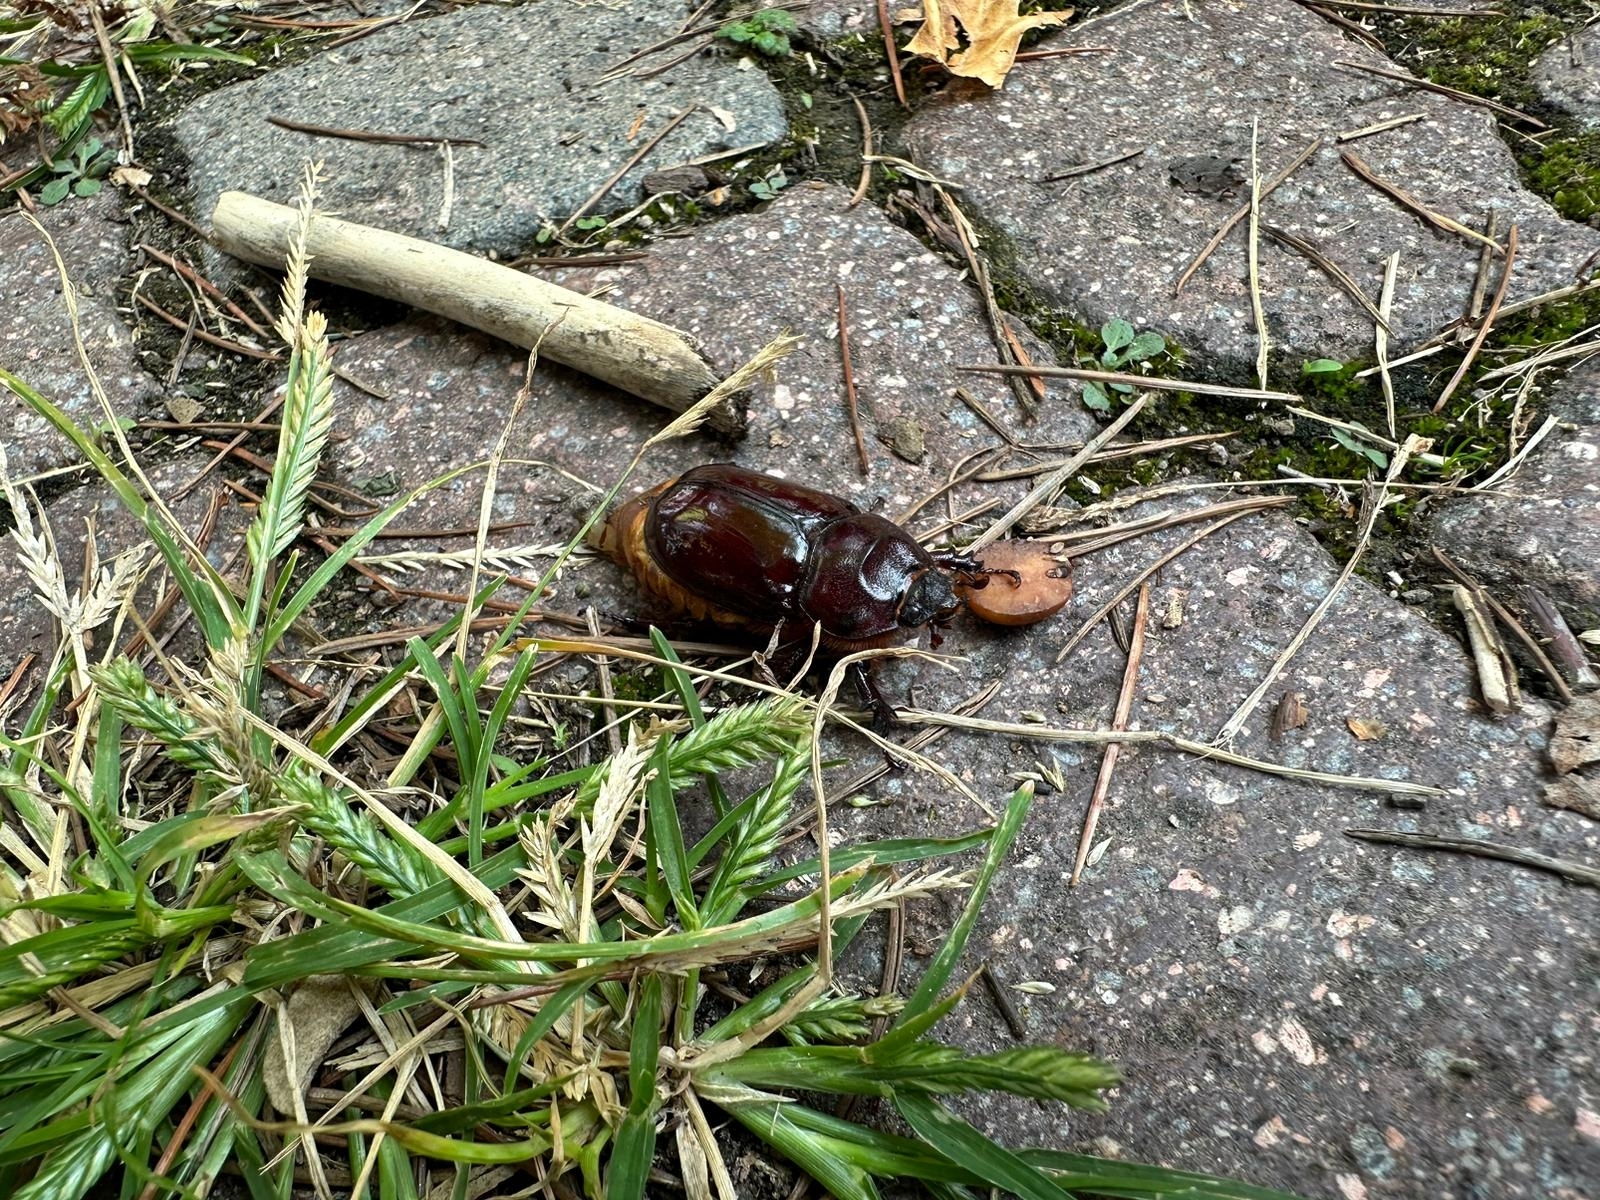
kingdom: Animalia
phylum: Arthropoda
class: Insecta
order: Coleoptera
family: Scarabaeidae
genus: Oryctes
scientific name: Oryctes nasicornis
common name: European rhinoceros beetle
